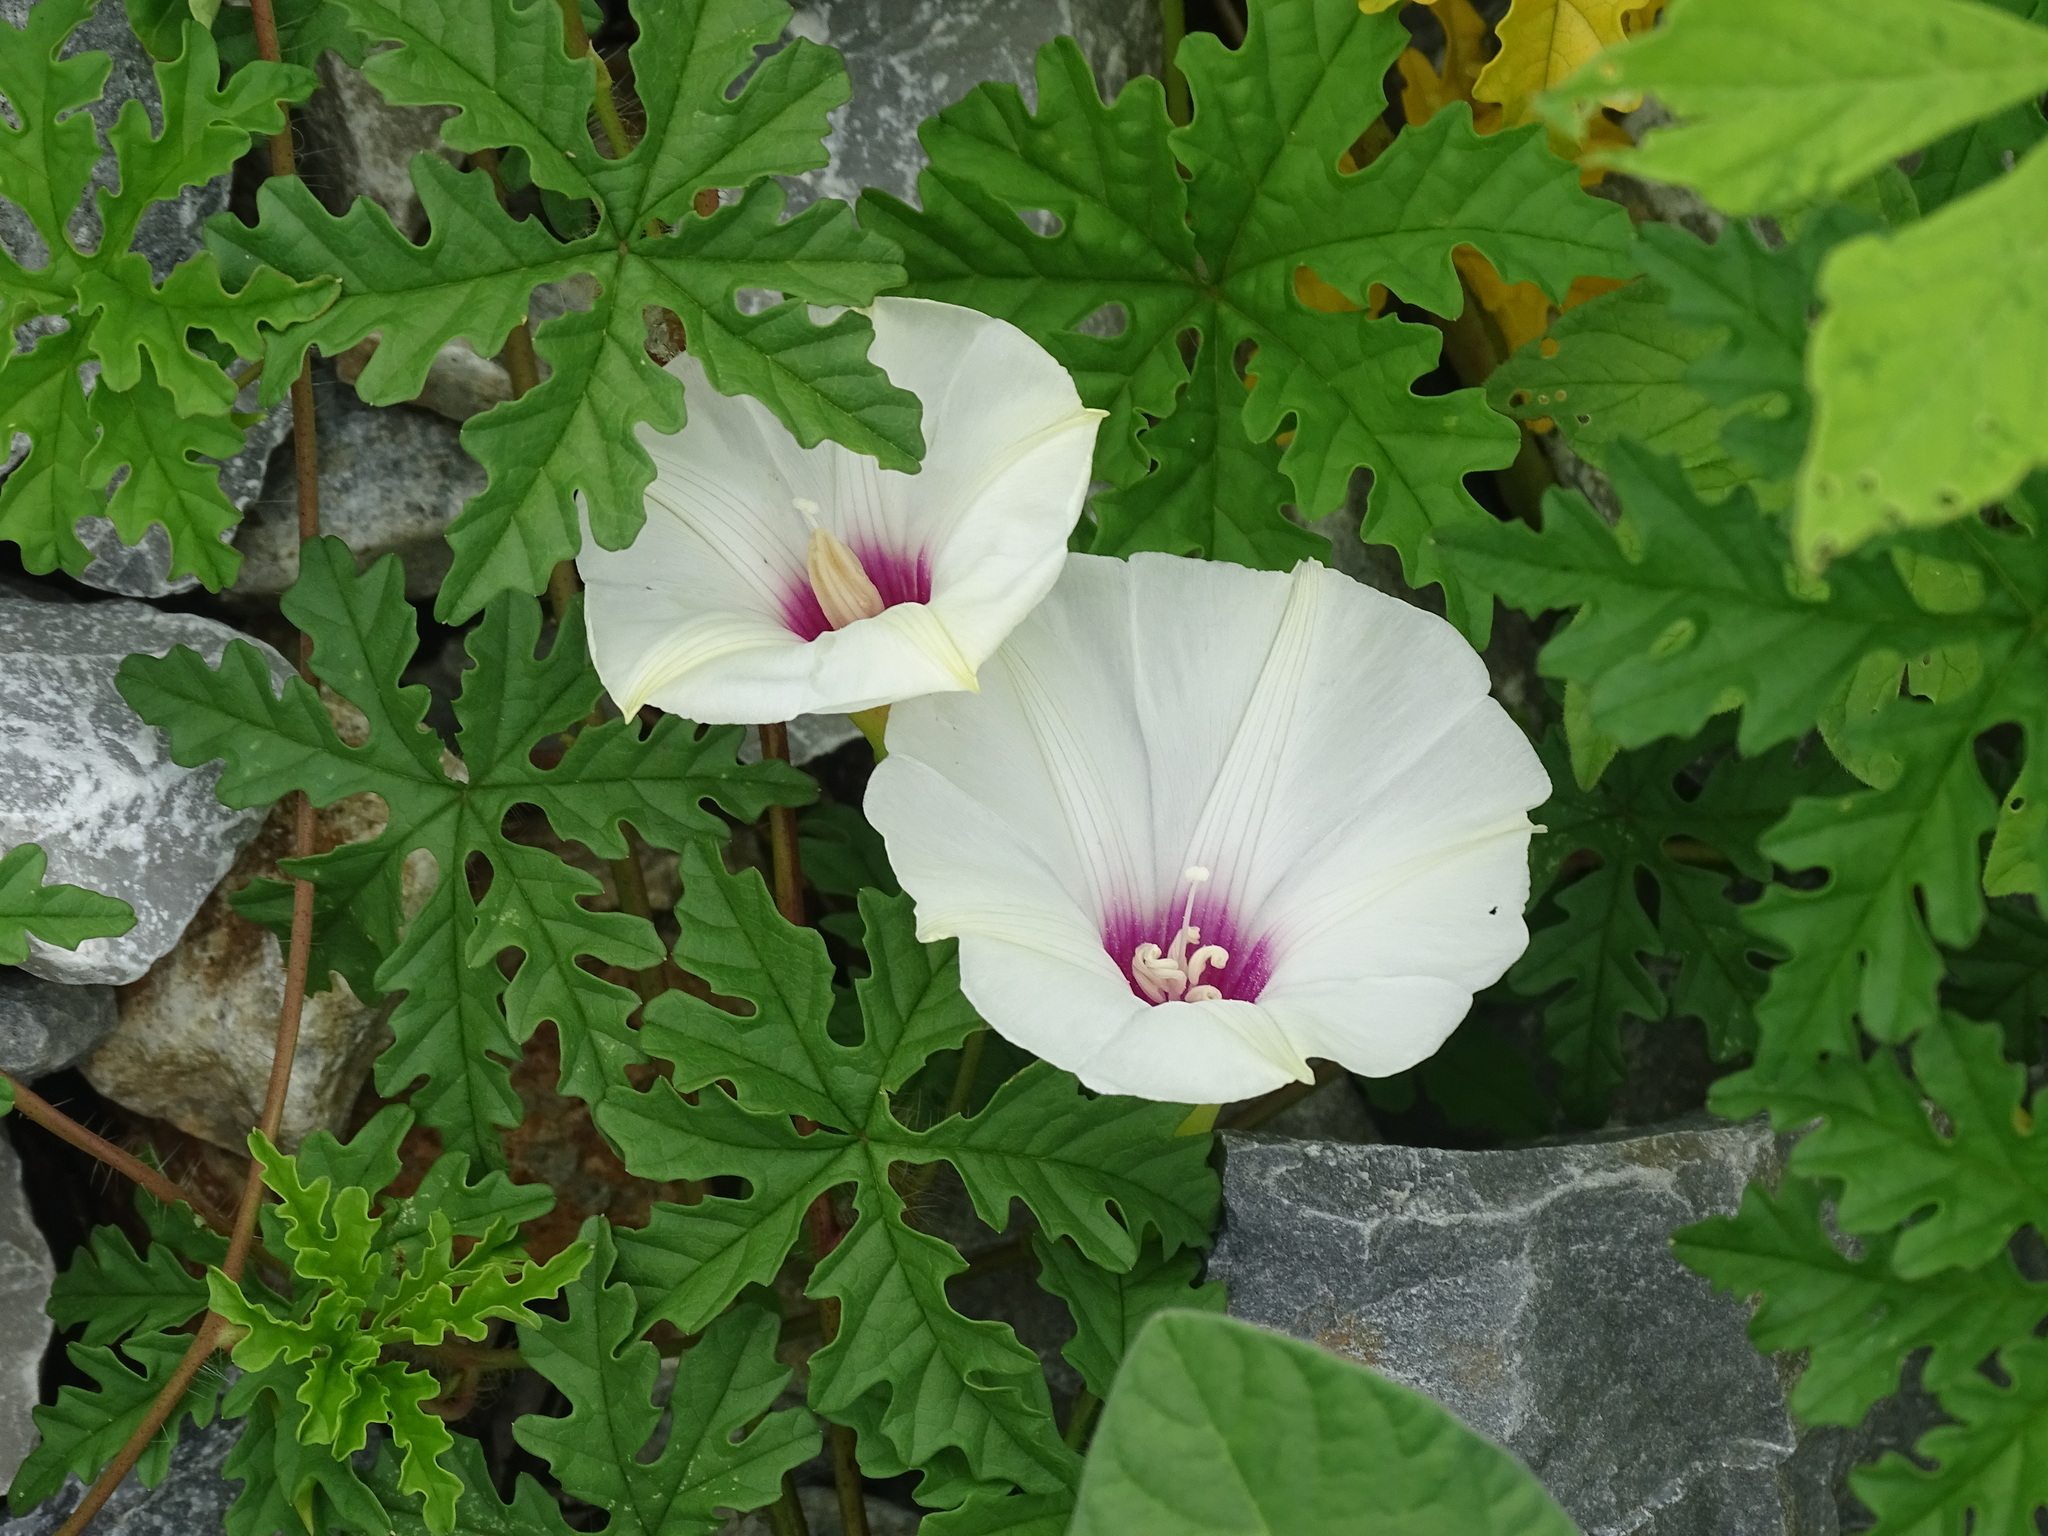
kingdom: Plantae
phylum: Tracheophyta
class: Magnoliopsida
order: Solanales
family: Convolvulaceae
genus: Distimake
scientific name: Distimake dissectus
